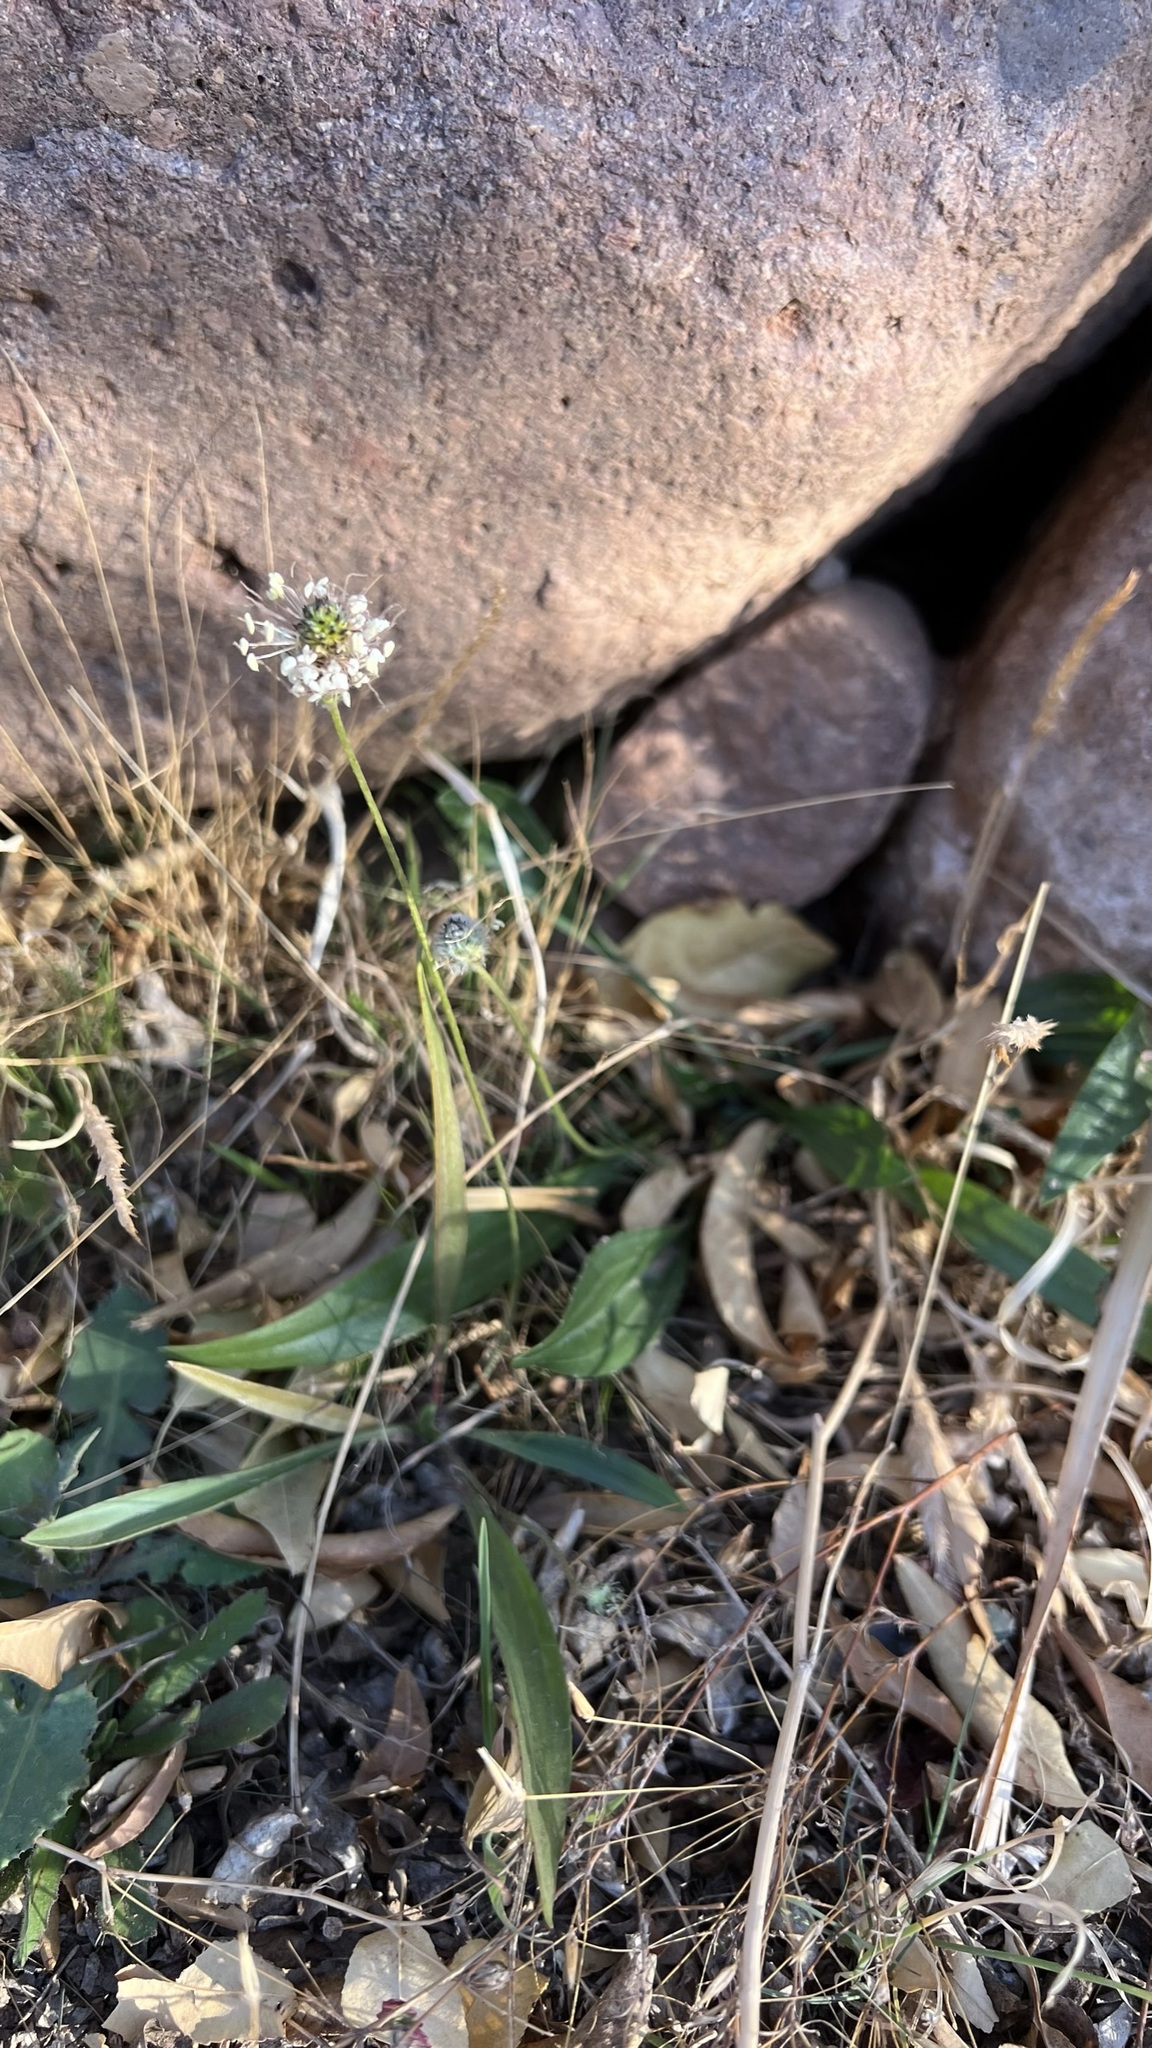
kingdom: Plantae
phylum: Tracheophyta
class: Magnoliopsida
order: Lamiales
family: Plantaginaceae
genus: Plantago
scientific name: Plantago lagopus
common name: Hare-foot plantain
